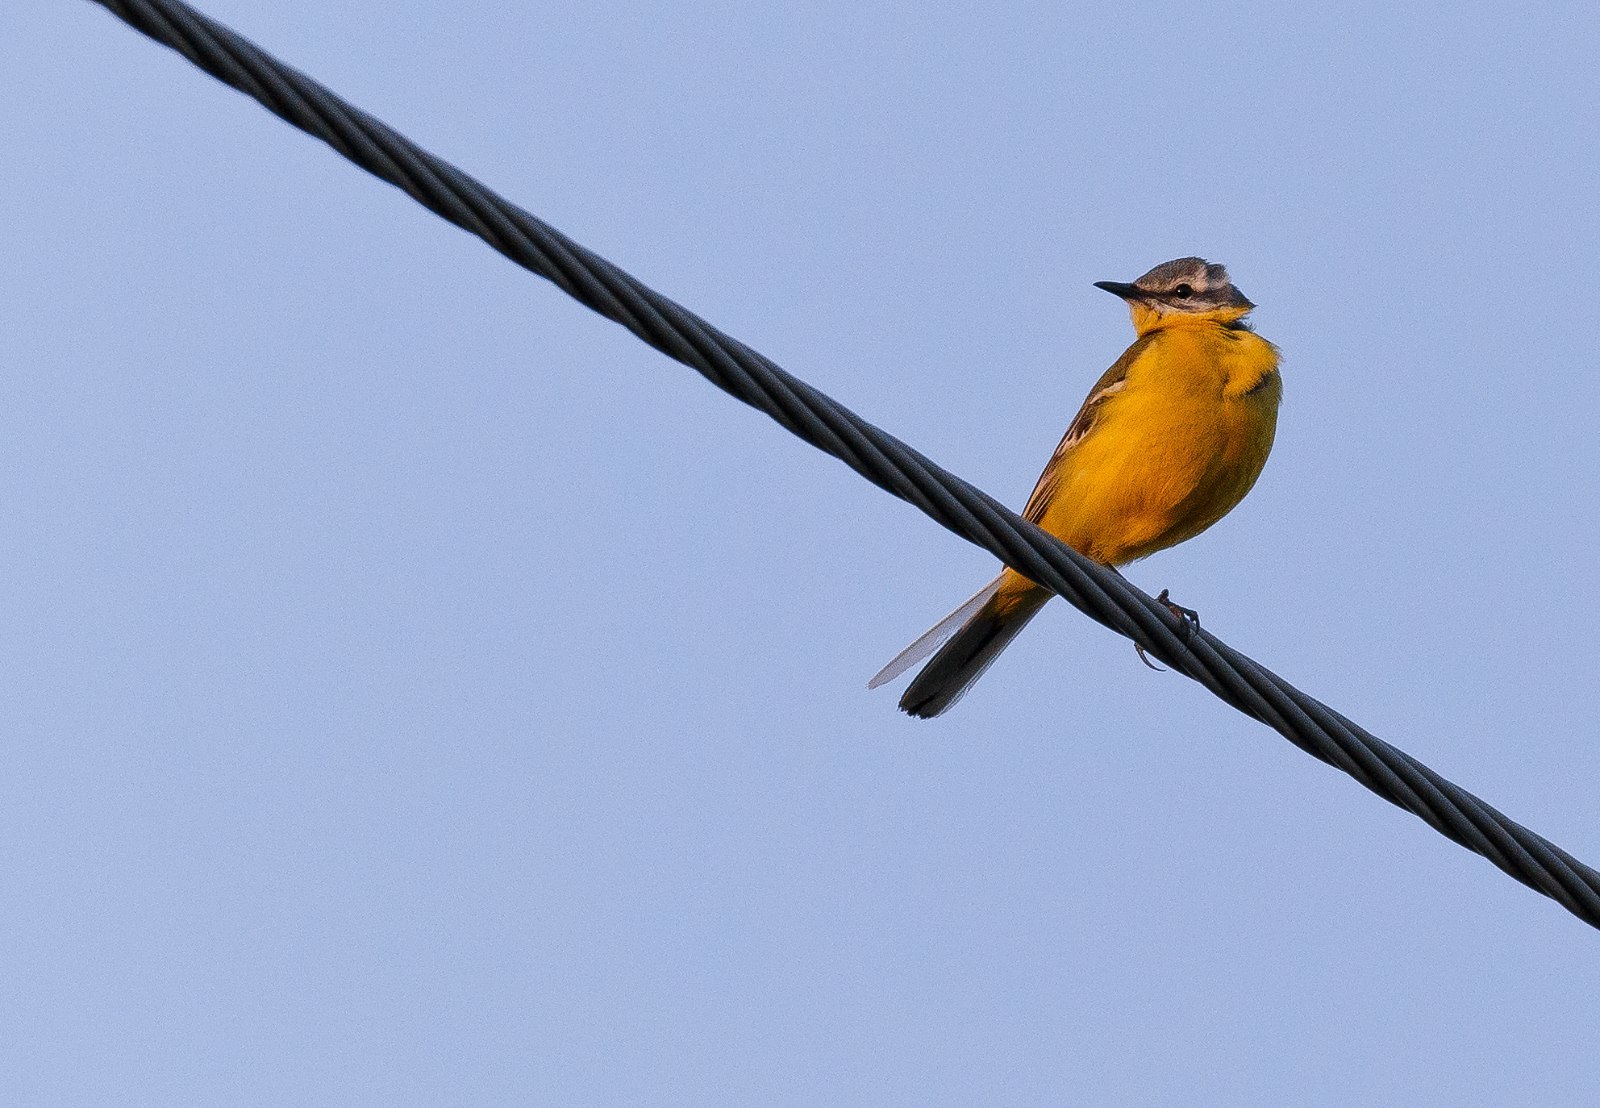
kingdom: Animalia
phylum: Chordata
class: Aves
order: Passeriformes
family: Motacillidae
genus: Motacilla
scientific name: Motacilla flava
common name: Western yellow wagtail
